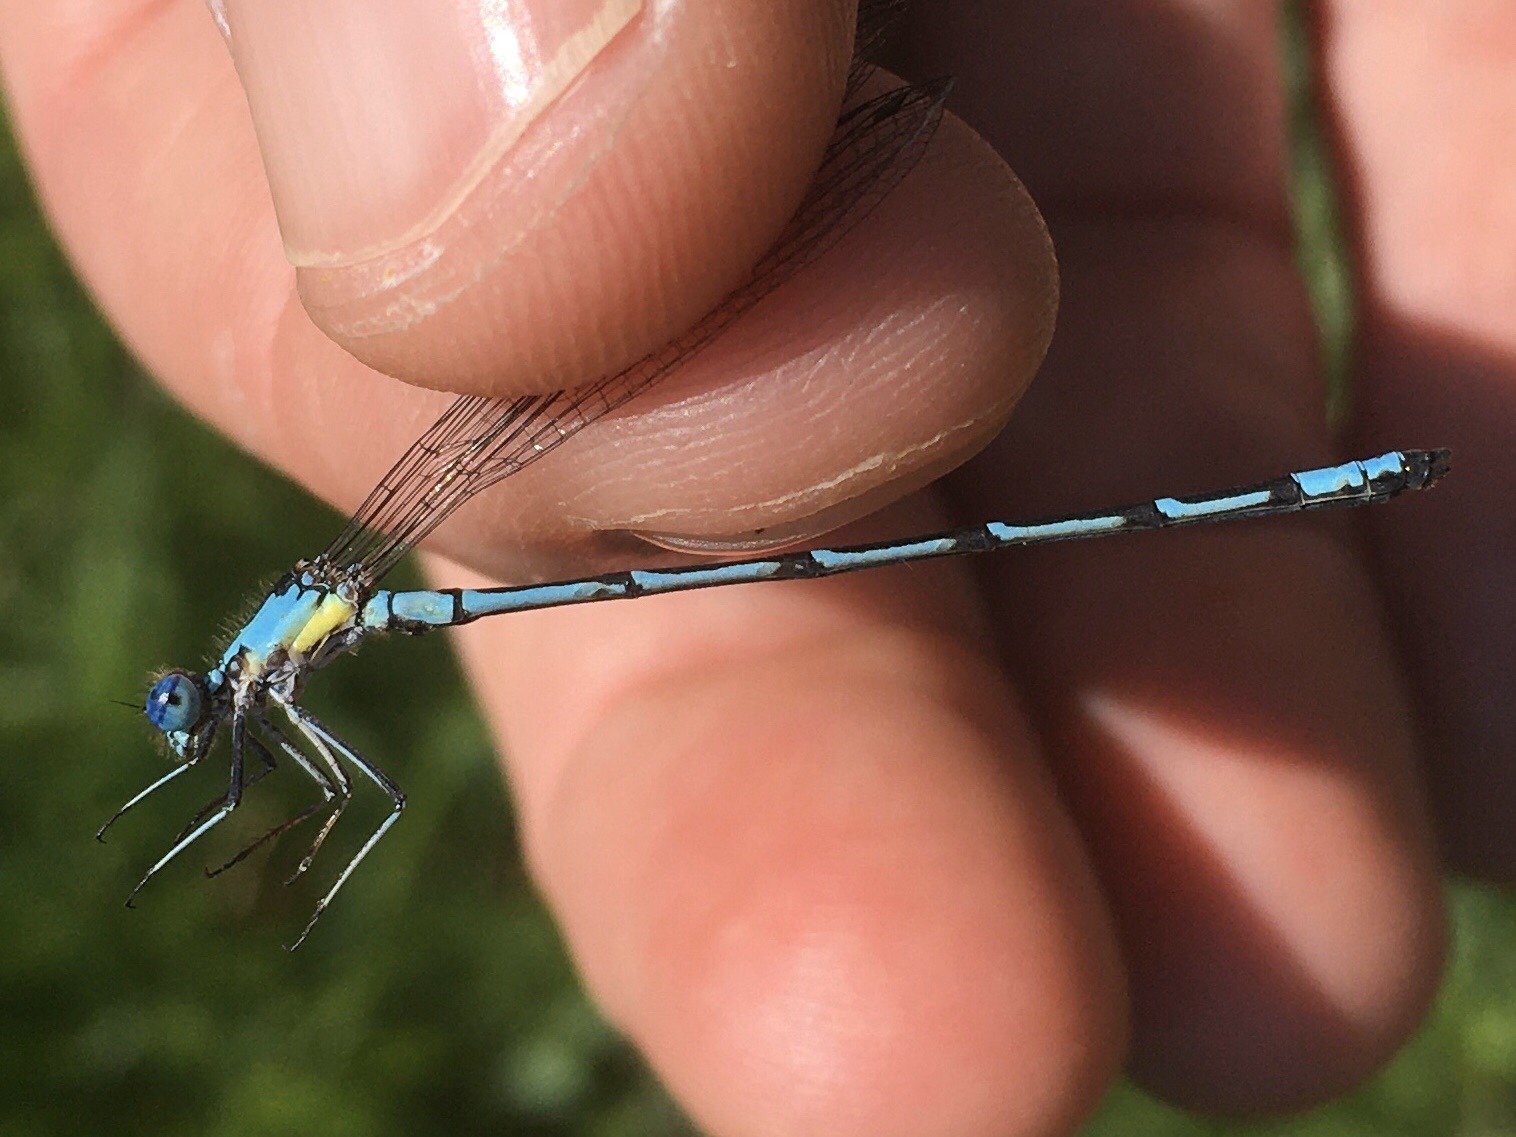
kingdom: Animalia
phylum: Arthropoda
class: Insecta
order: Odonata
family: Coenagrionidae
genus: Chromagrion
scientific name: Chromagrion conditum
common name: Aurora damsel
